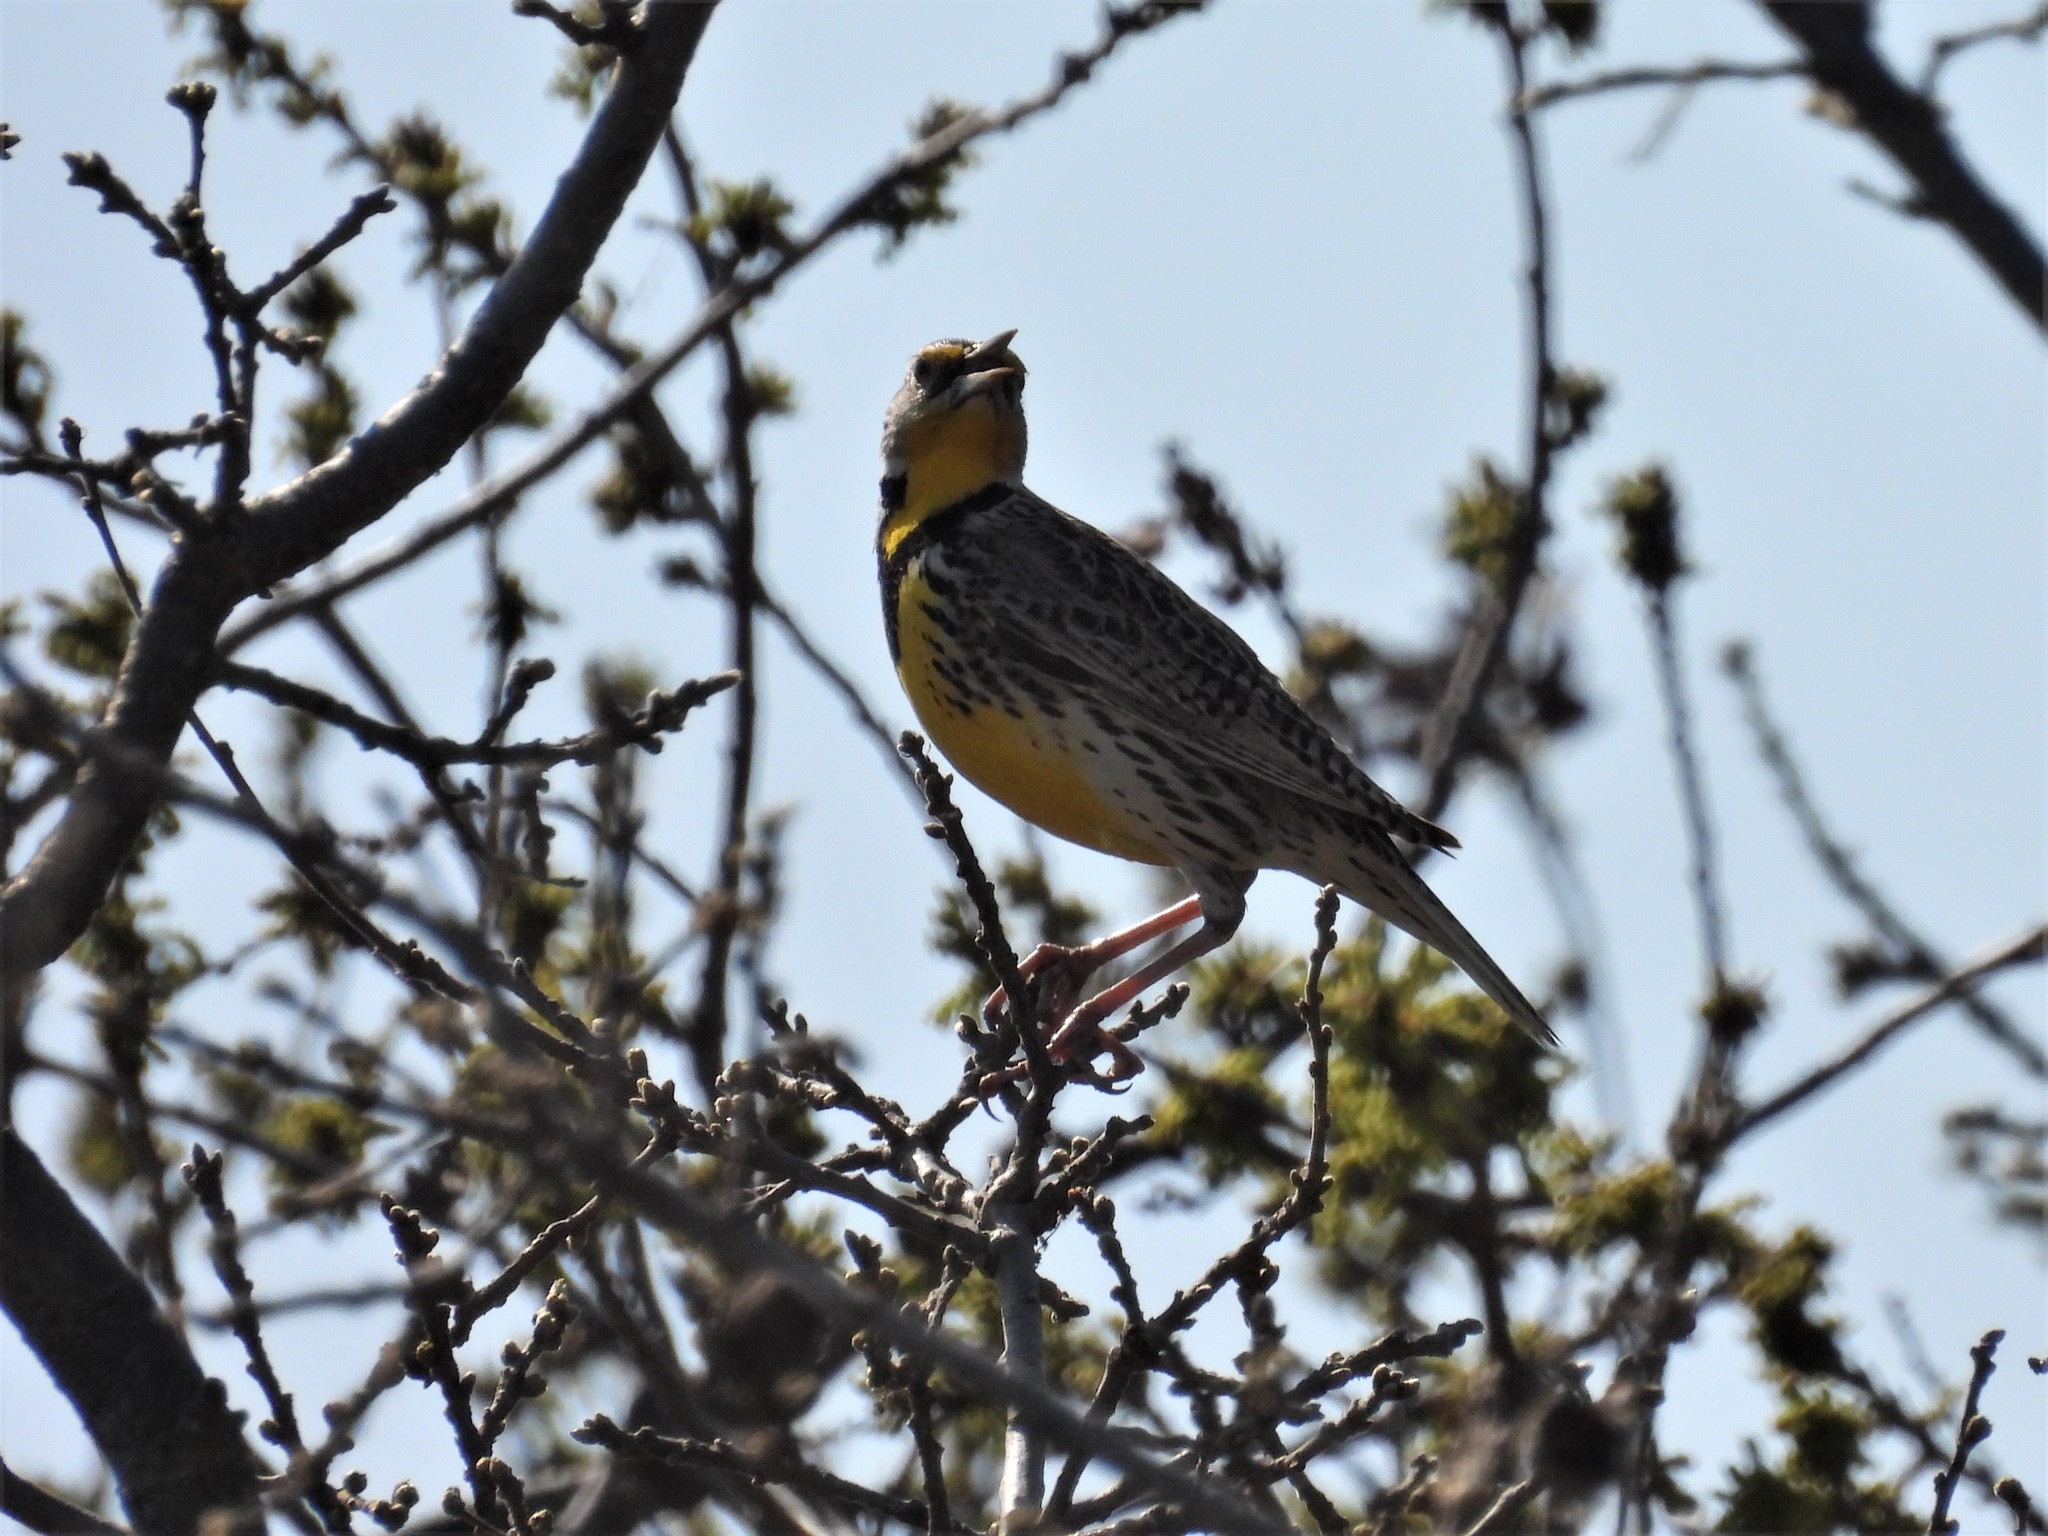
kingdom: Animalia
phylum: Chordata
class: Aves
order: Passeriformes
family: Icteridae
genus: Sturnella
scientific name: Sturnella neglecta
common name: Western meadowlark
